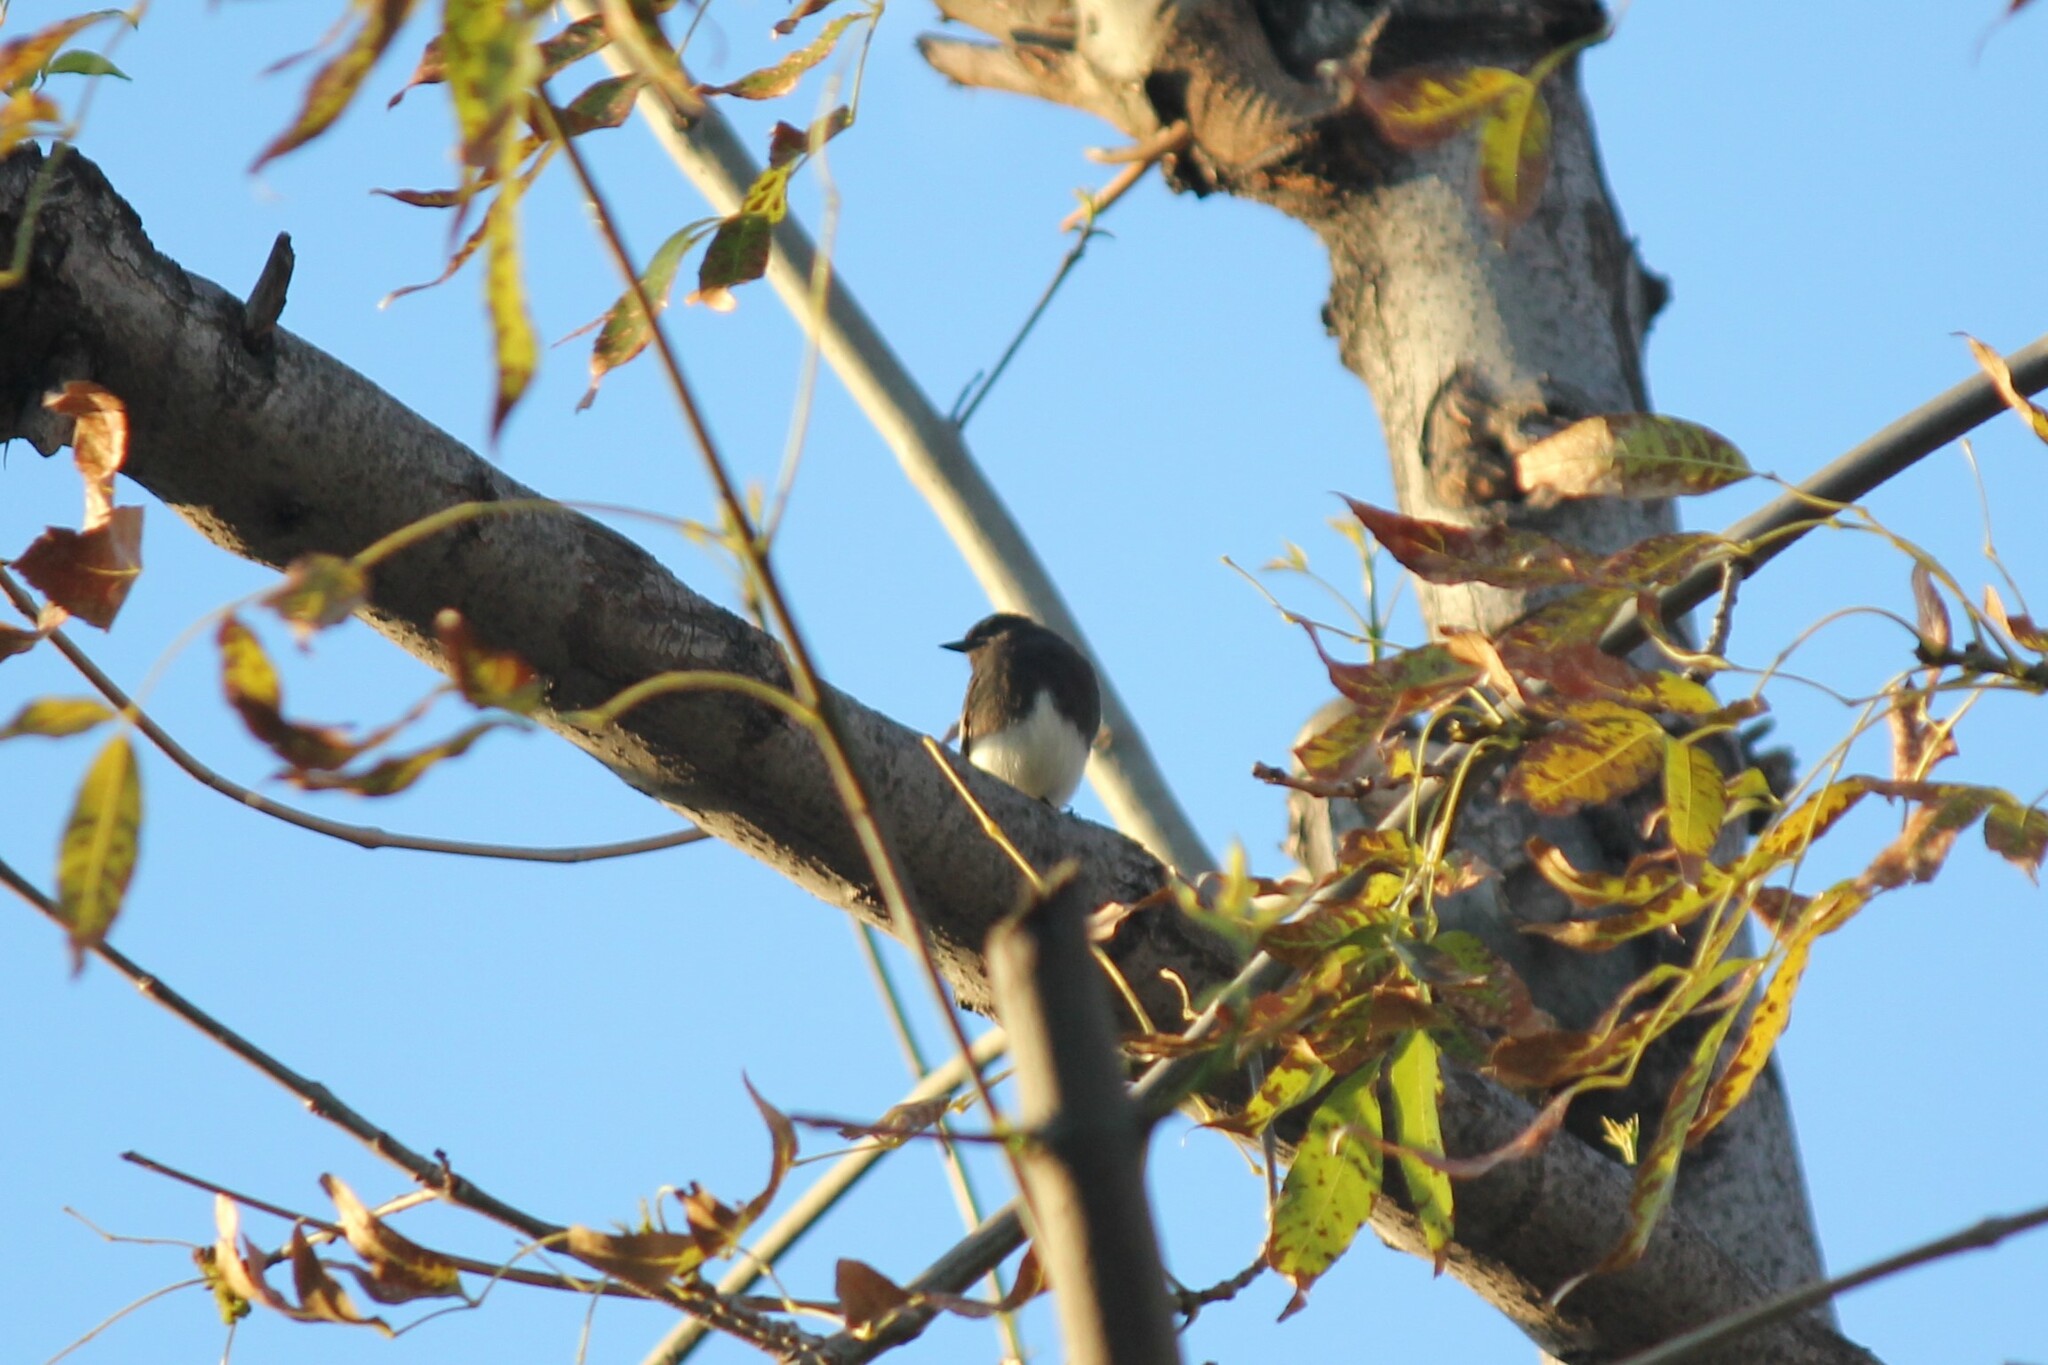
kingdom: Animalia
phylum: Chordata
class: Aves
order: Passeriformes
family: Tyrannidae
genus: Sayornis
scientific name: Sayornis nigricans
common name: Black phoebe
